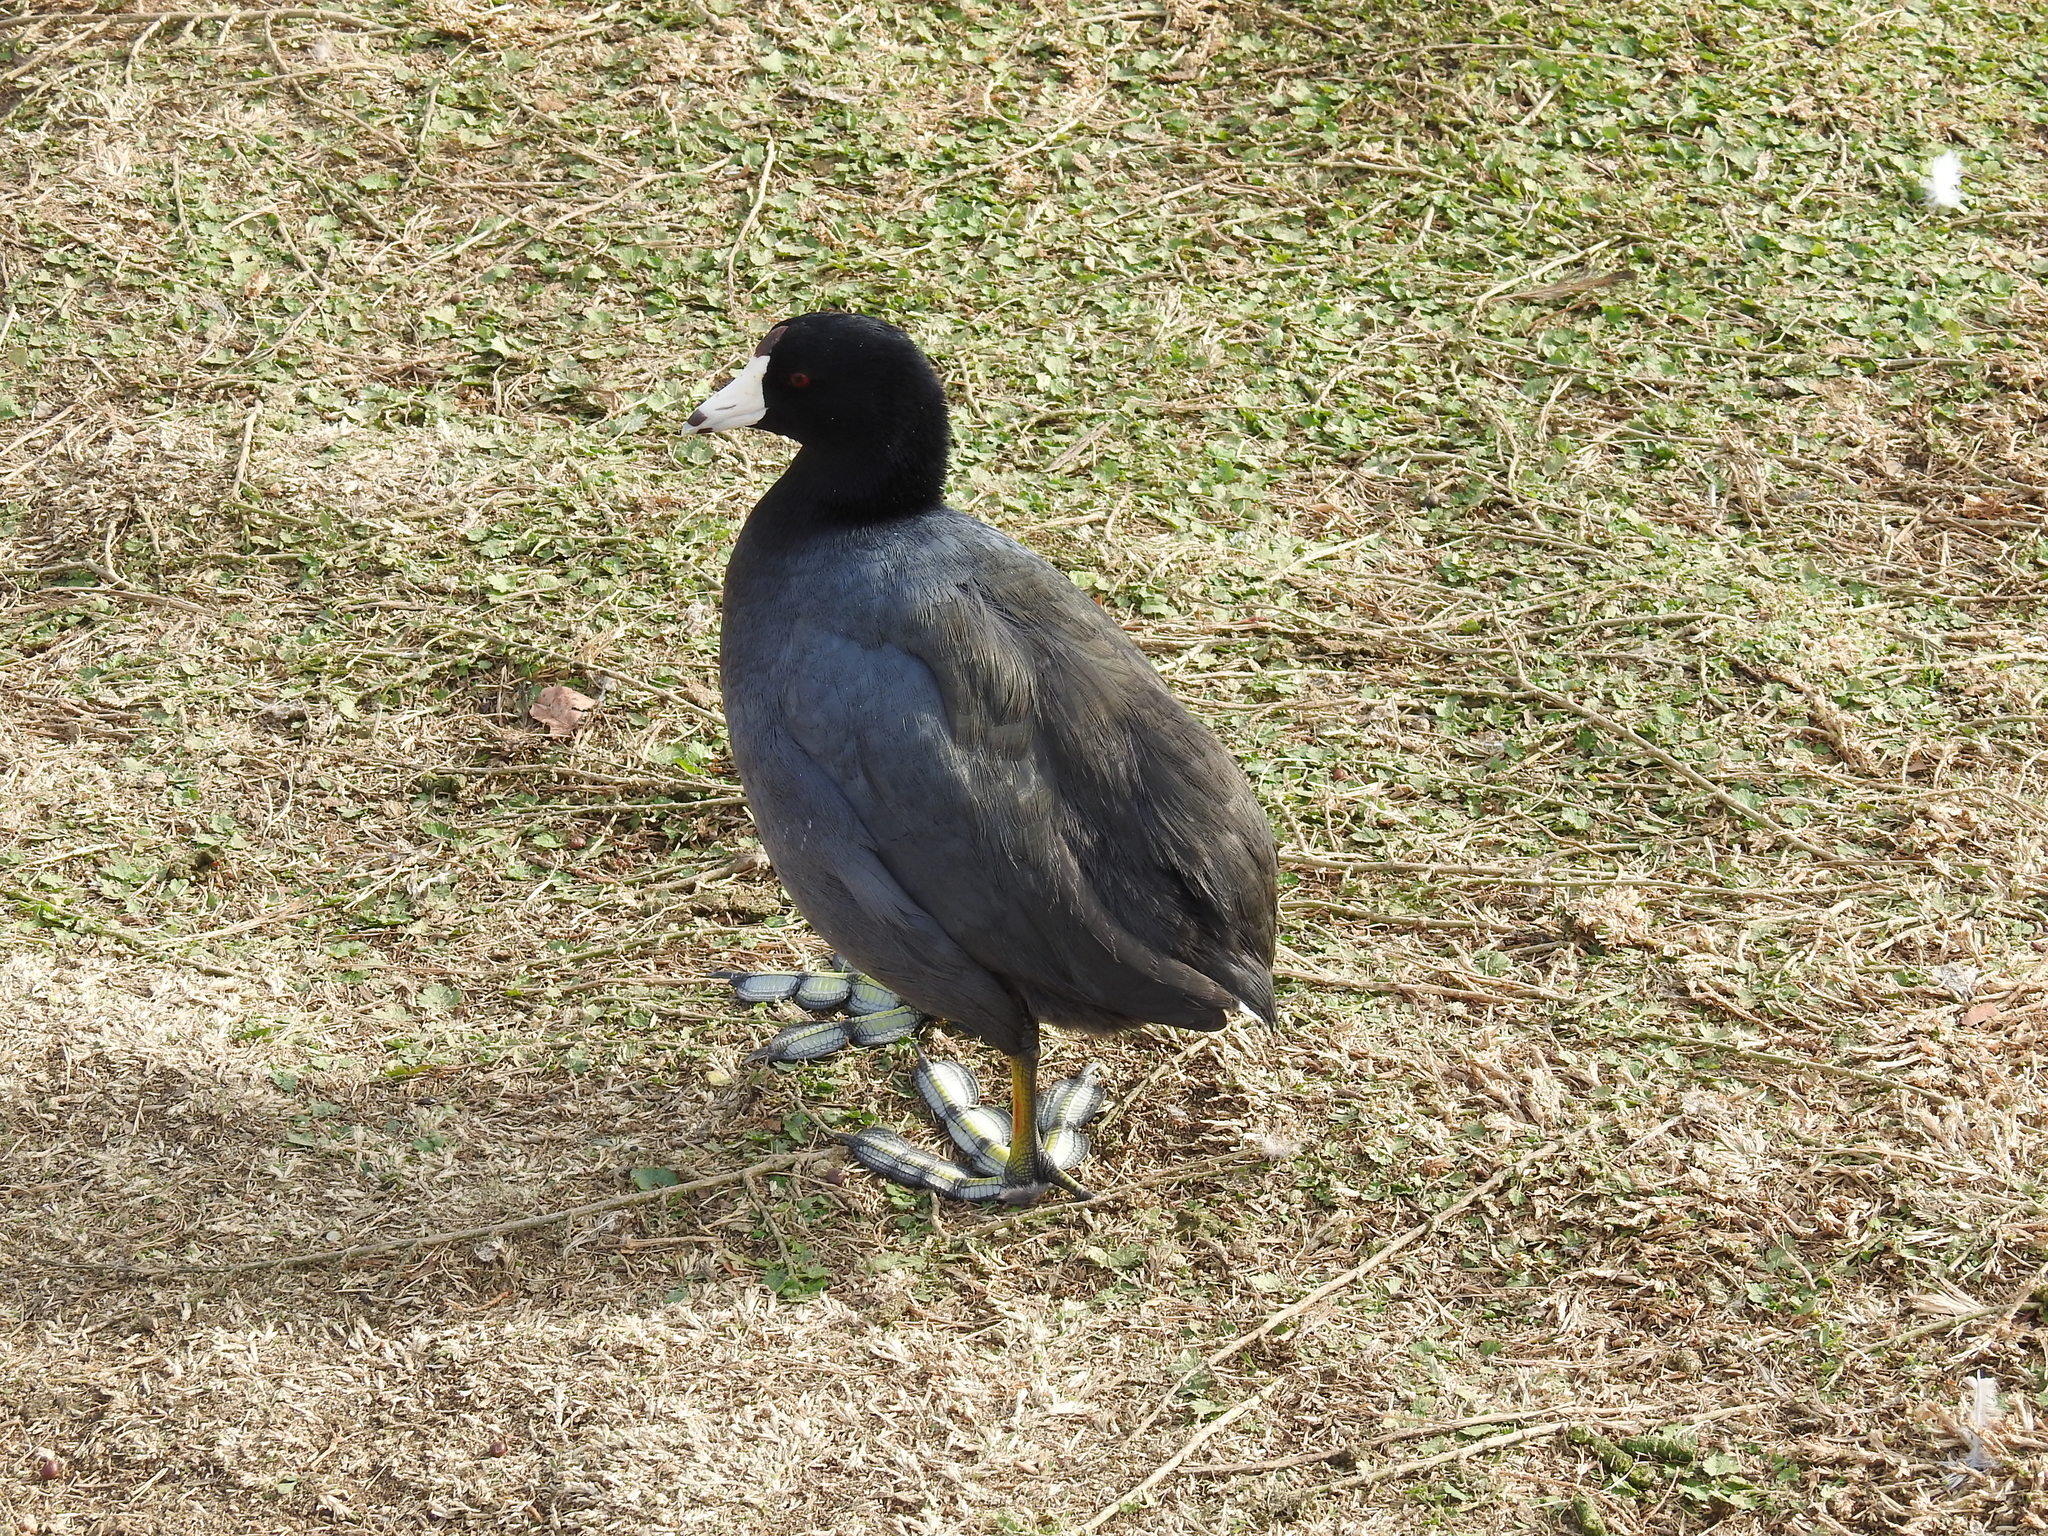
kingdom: Animalia
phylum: Chordata
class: Aves
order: Gruiformes
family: Rallidae
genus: Fulica
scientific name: Fulica americana
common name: American coot
